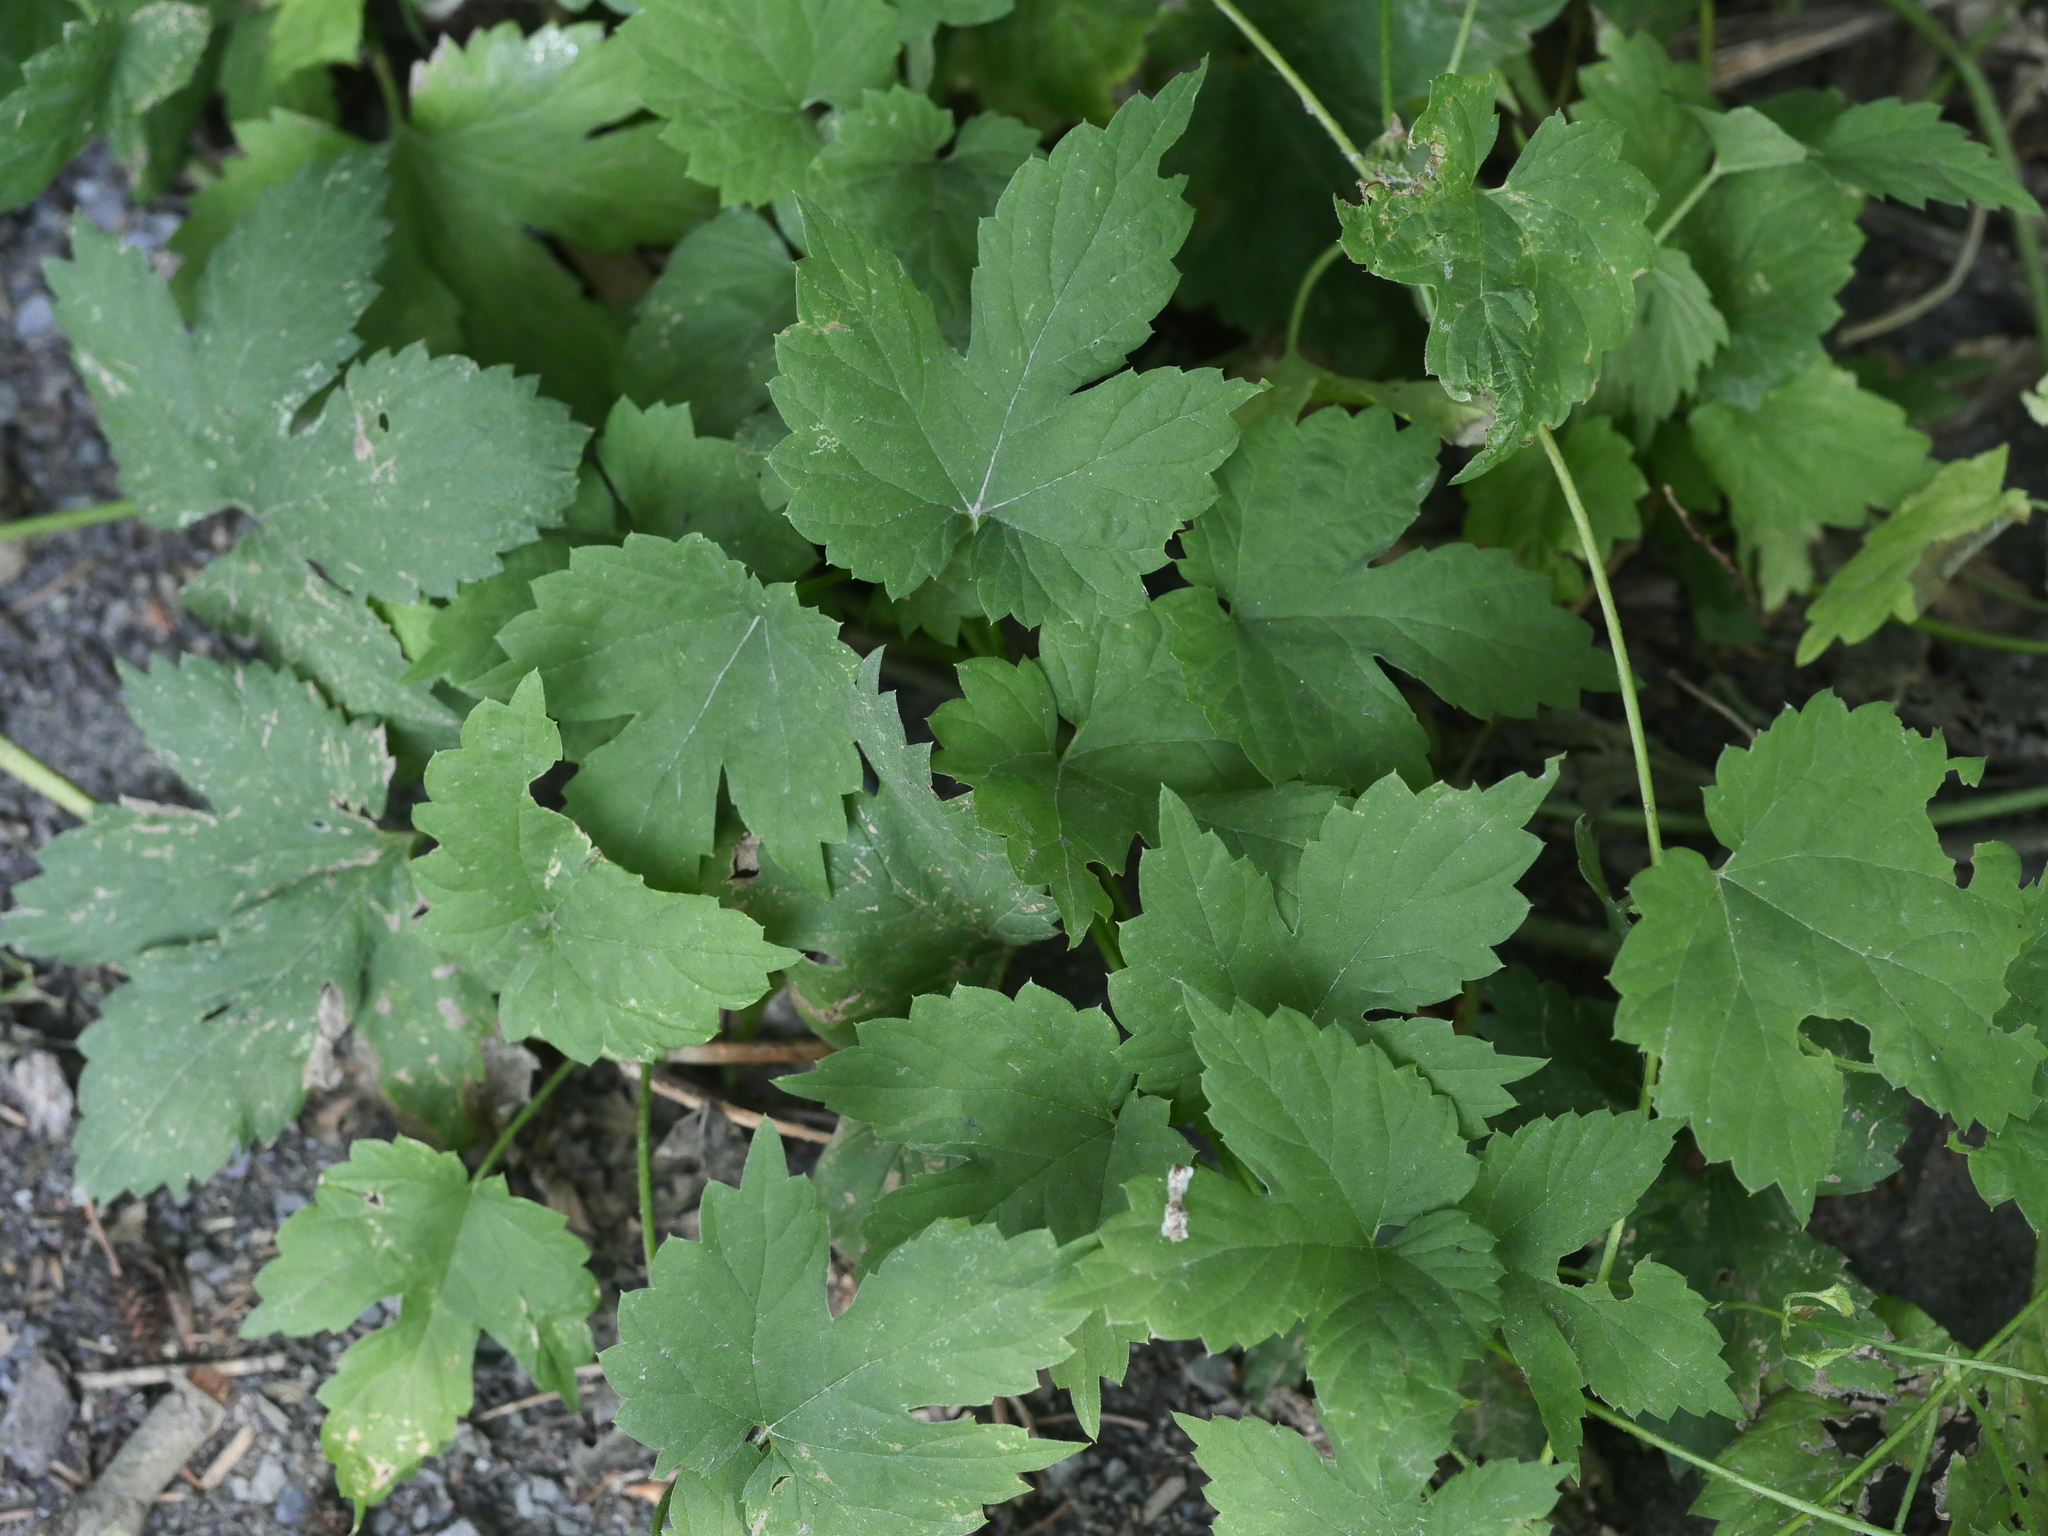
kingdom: Plantae
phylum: Tracheophyta
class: Magnoliopsida
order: Rosales
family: Cannabaceae
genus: Humulus
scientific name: Humulus lupulus
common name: Hop
